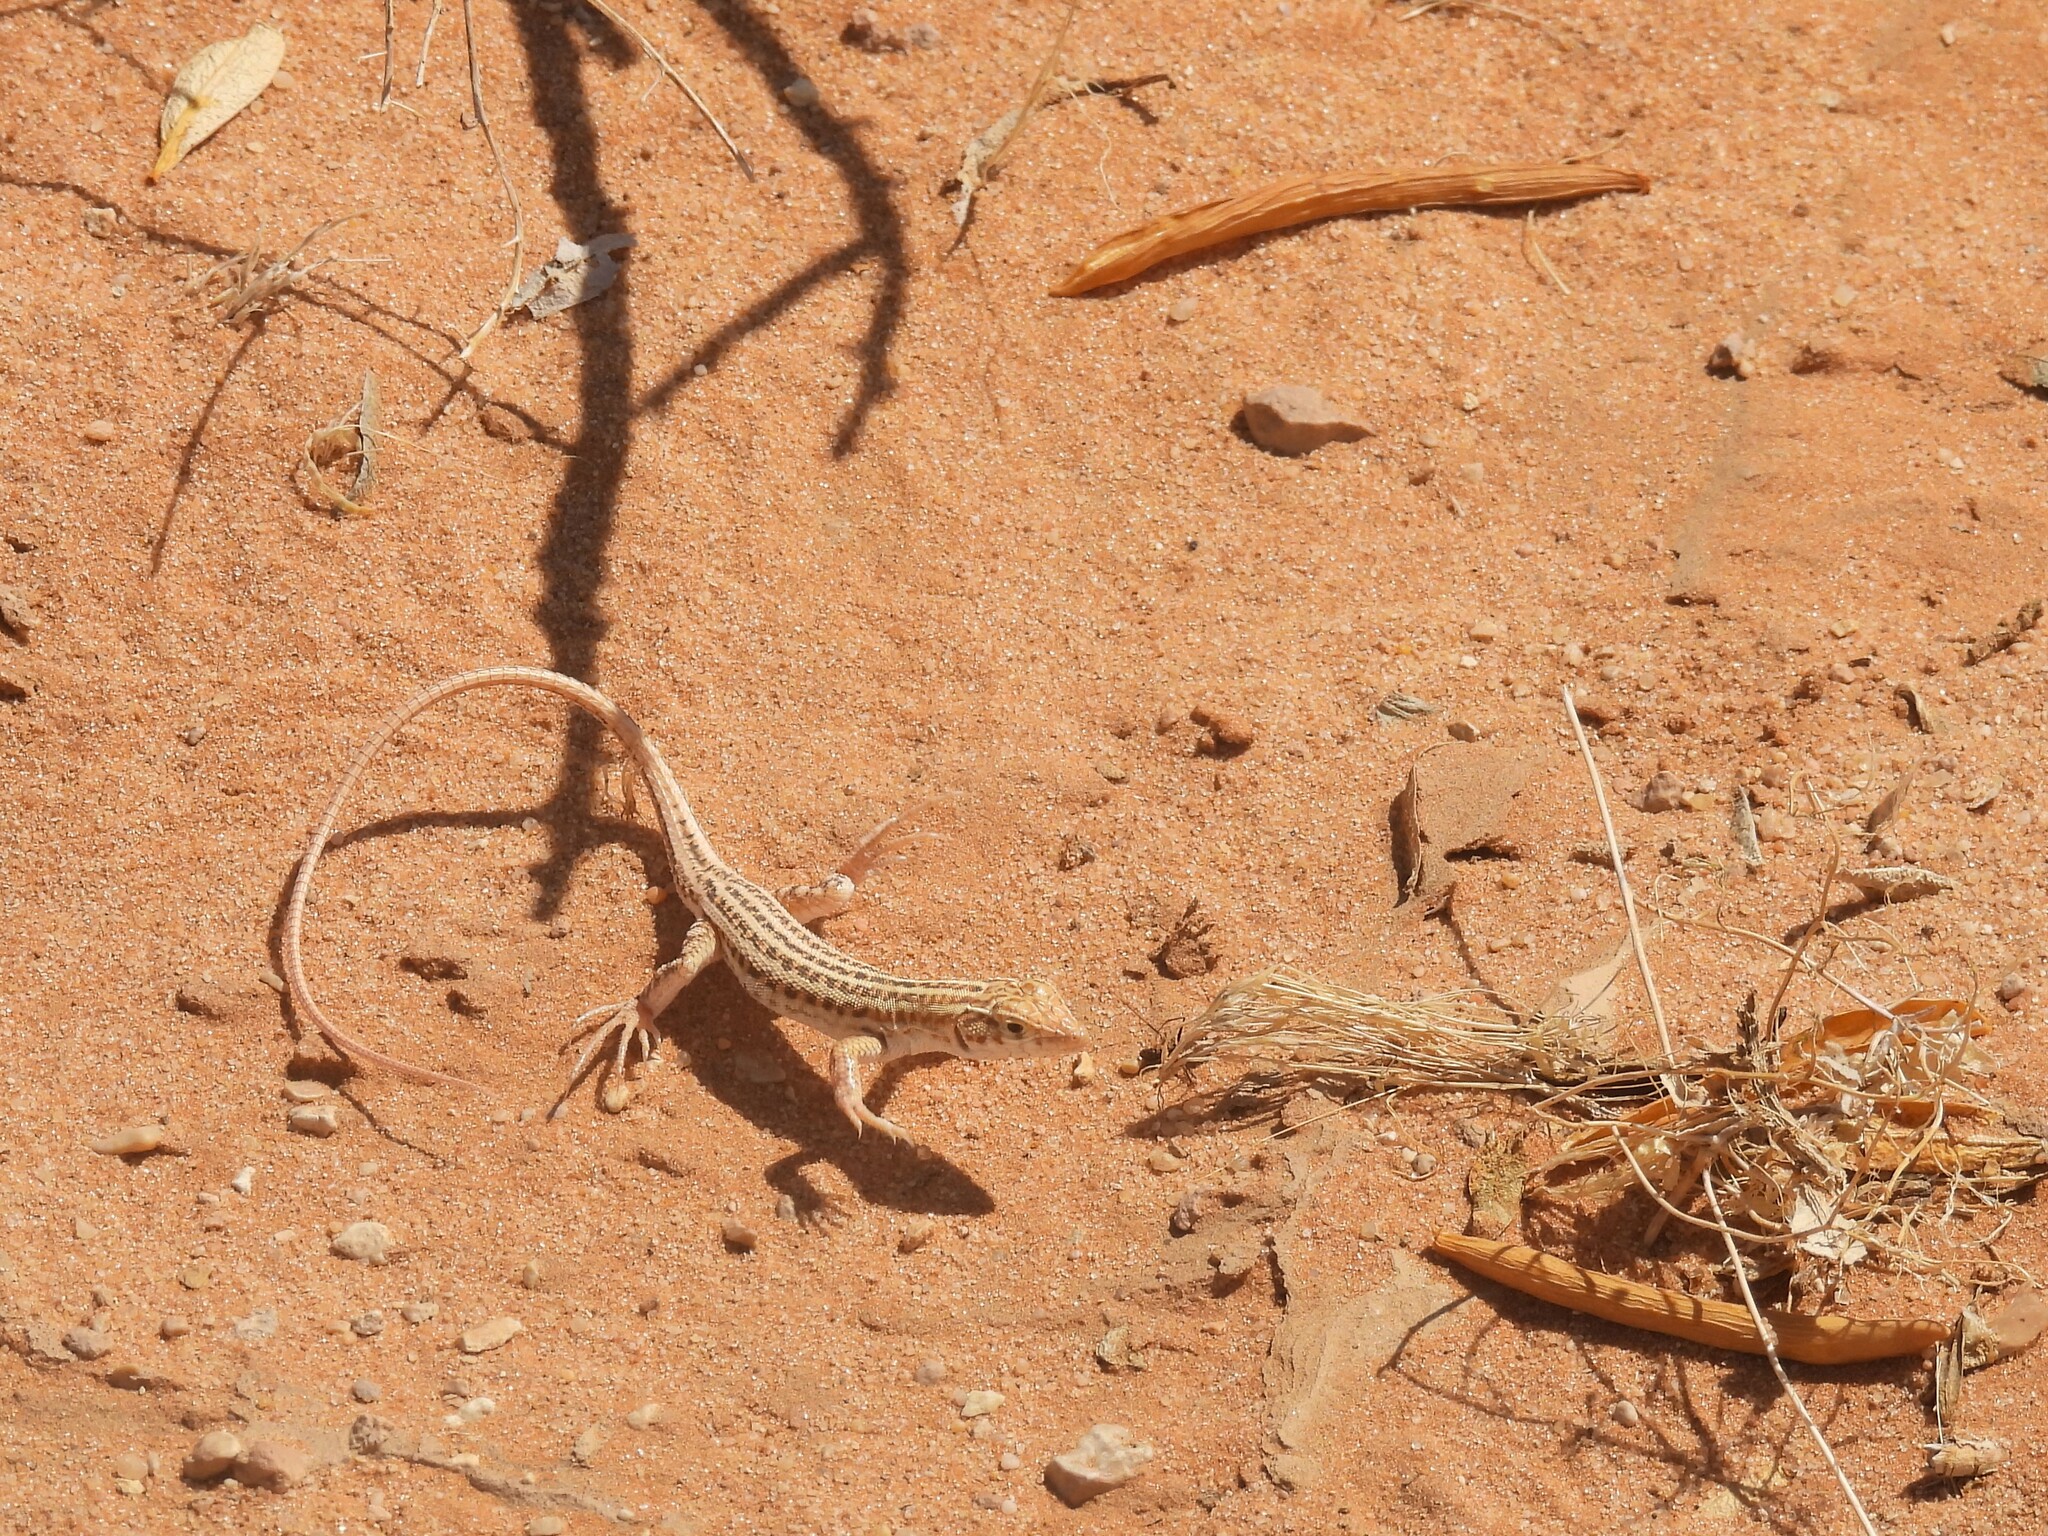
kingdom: Animalia
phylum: Chordata
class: Squamata
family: Lacertidae
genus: Acanthodactylus
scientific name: Acanthodactylus opheodurus
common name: Arnold's fringe-fingered lizard
